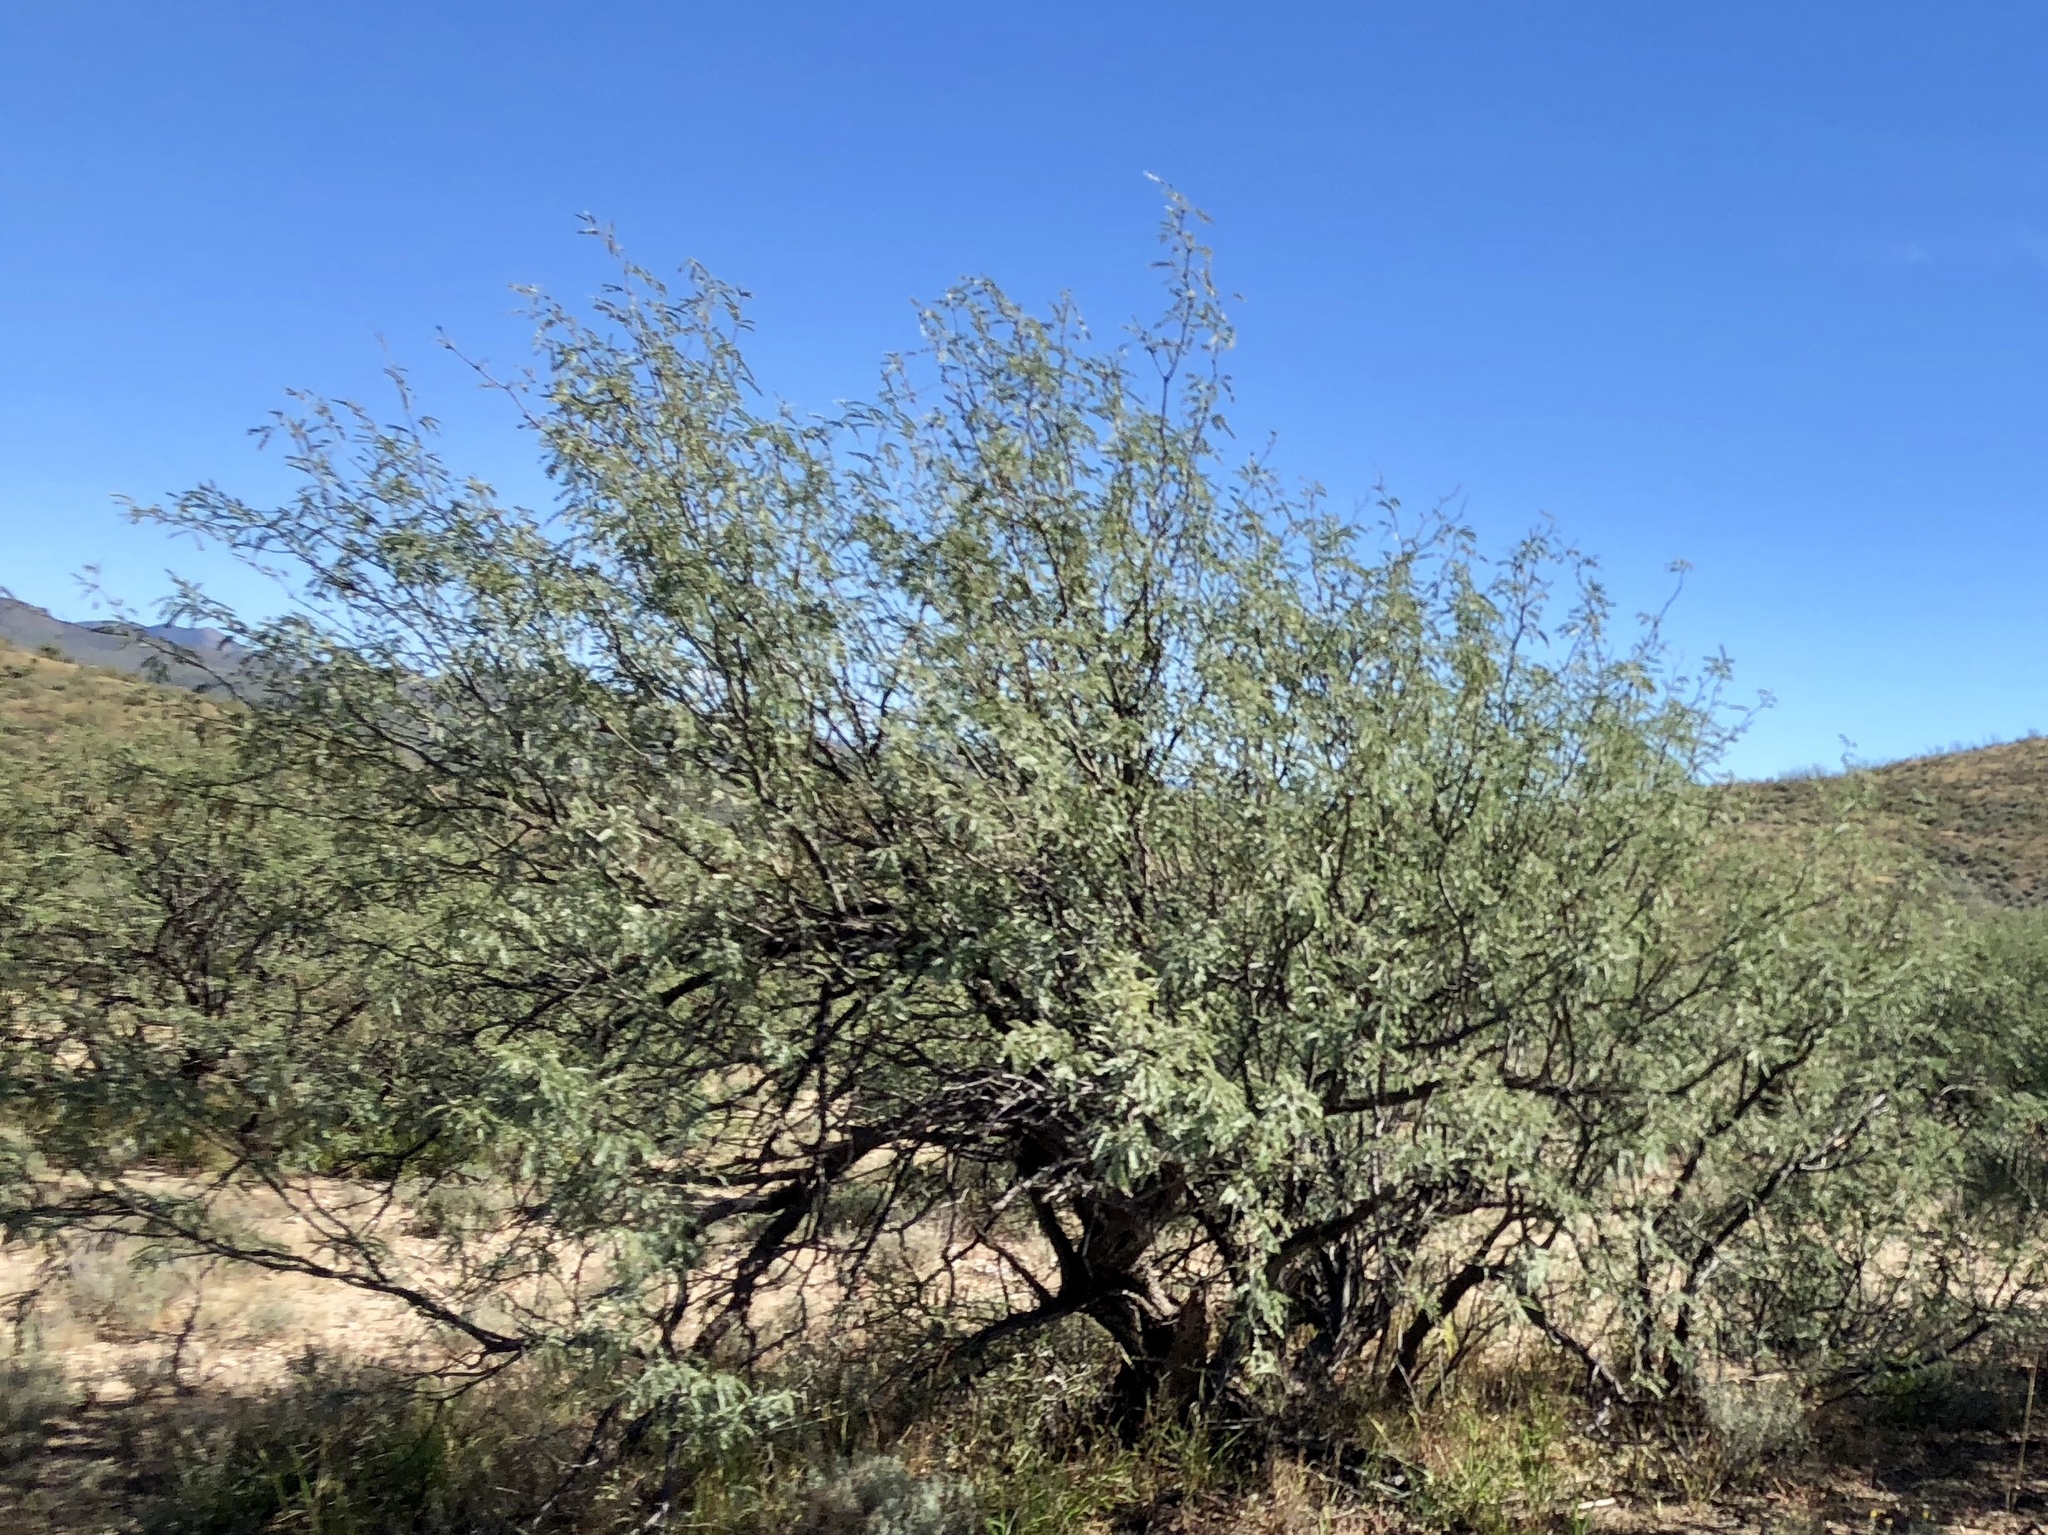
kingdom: Plantae
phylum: Tracheophyta
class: Magnoliopsida
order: Fabales
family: Fabaceae
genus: Prosopis
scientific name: Prosopis velutina
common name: Velvet mesquite
